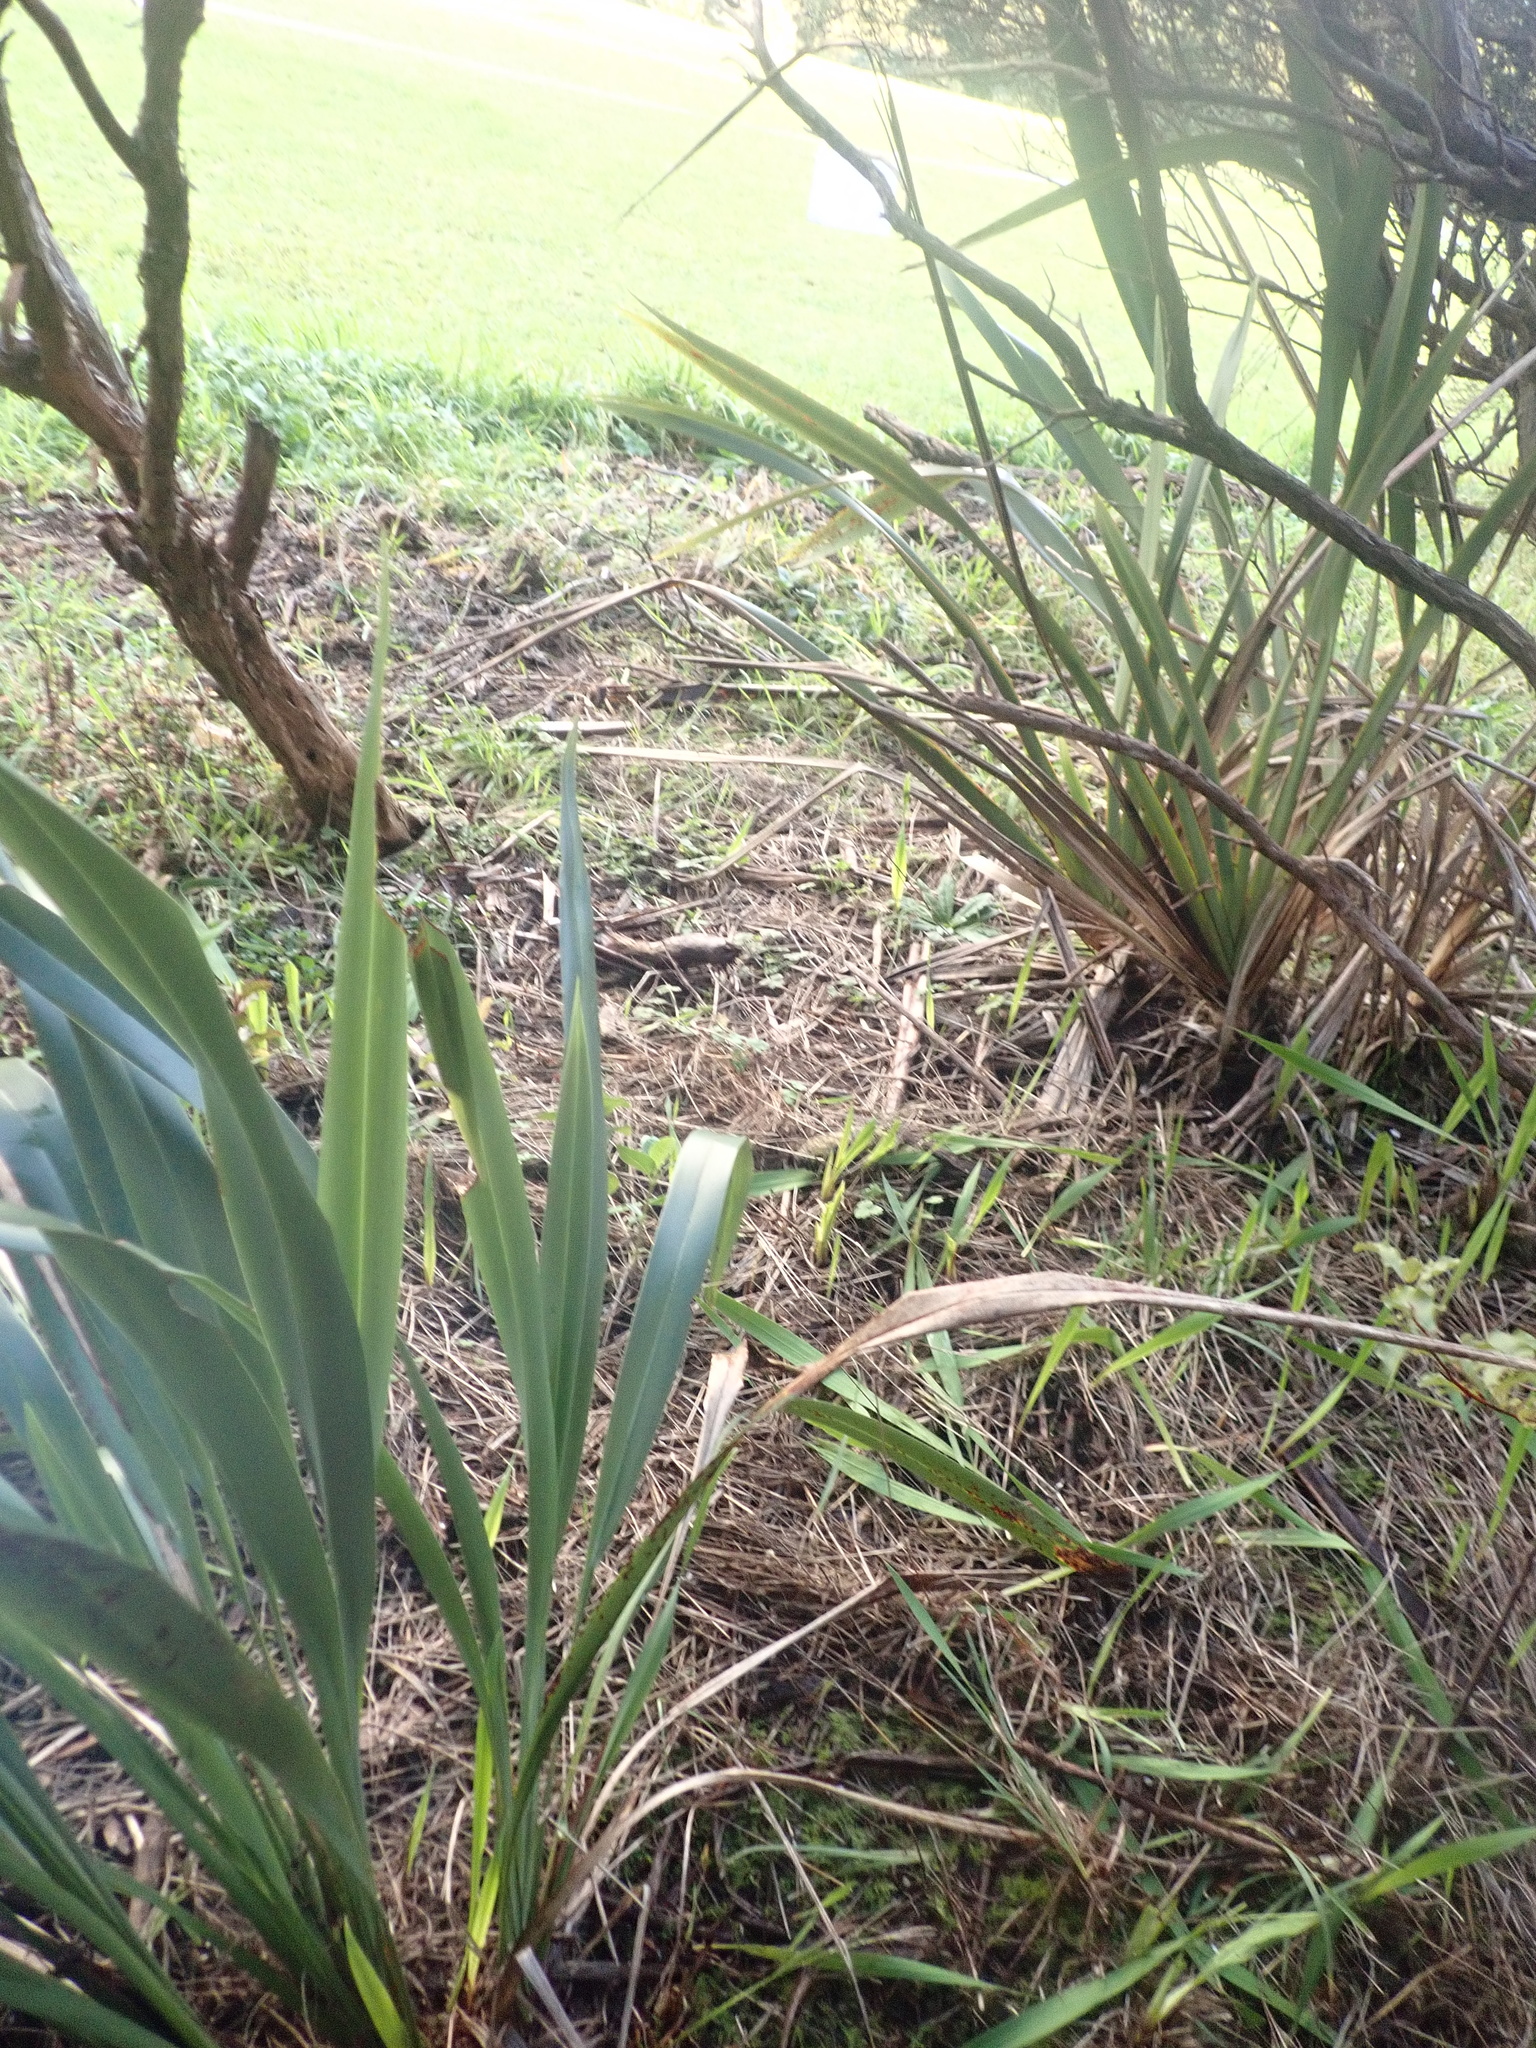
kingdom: Plantae
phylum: Tracheophyta
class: Pinopsida
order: Pinales
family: Araucariaceae
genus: Agathis
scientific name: Agathis australis
